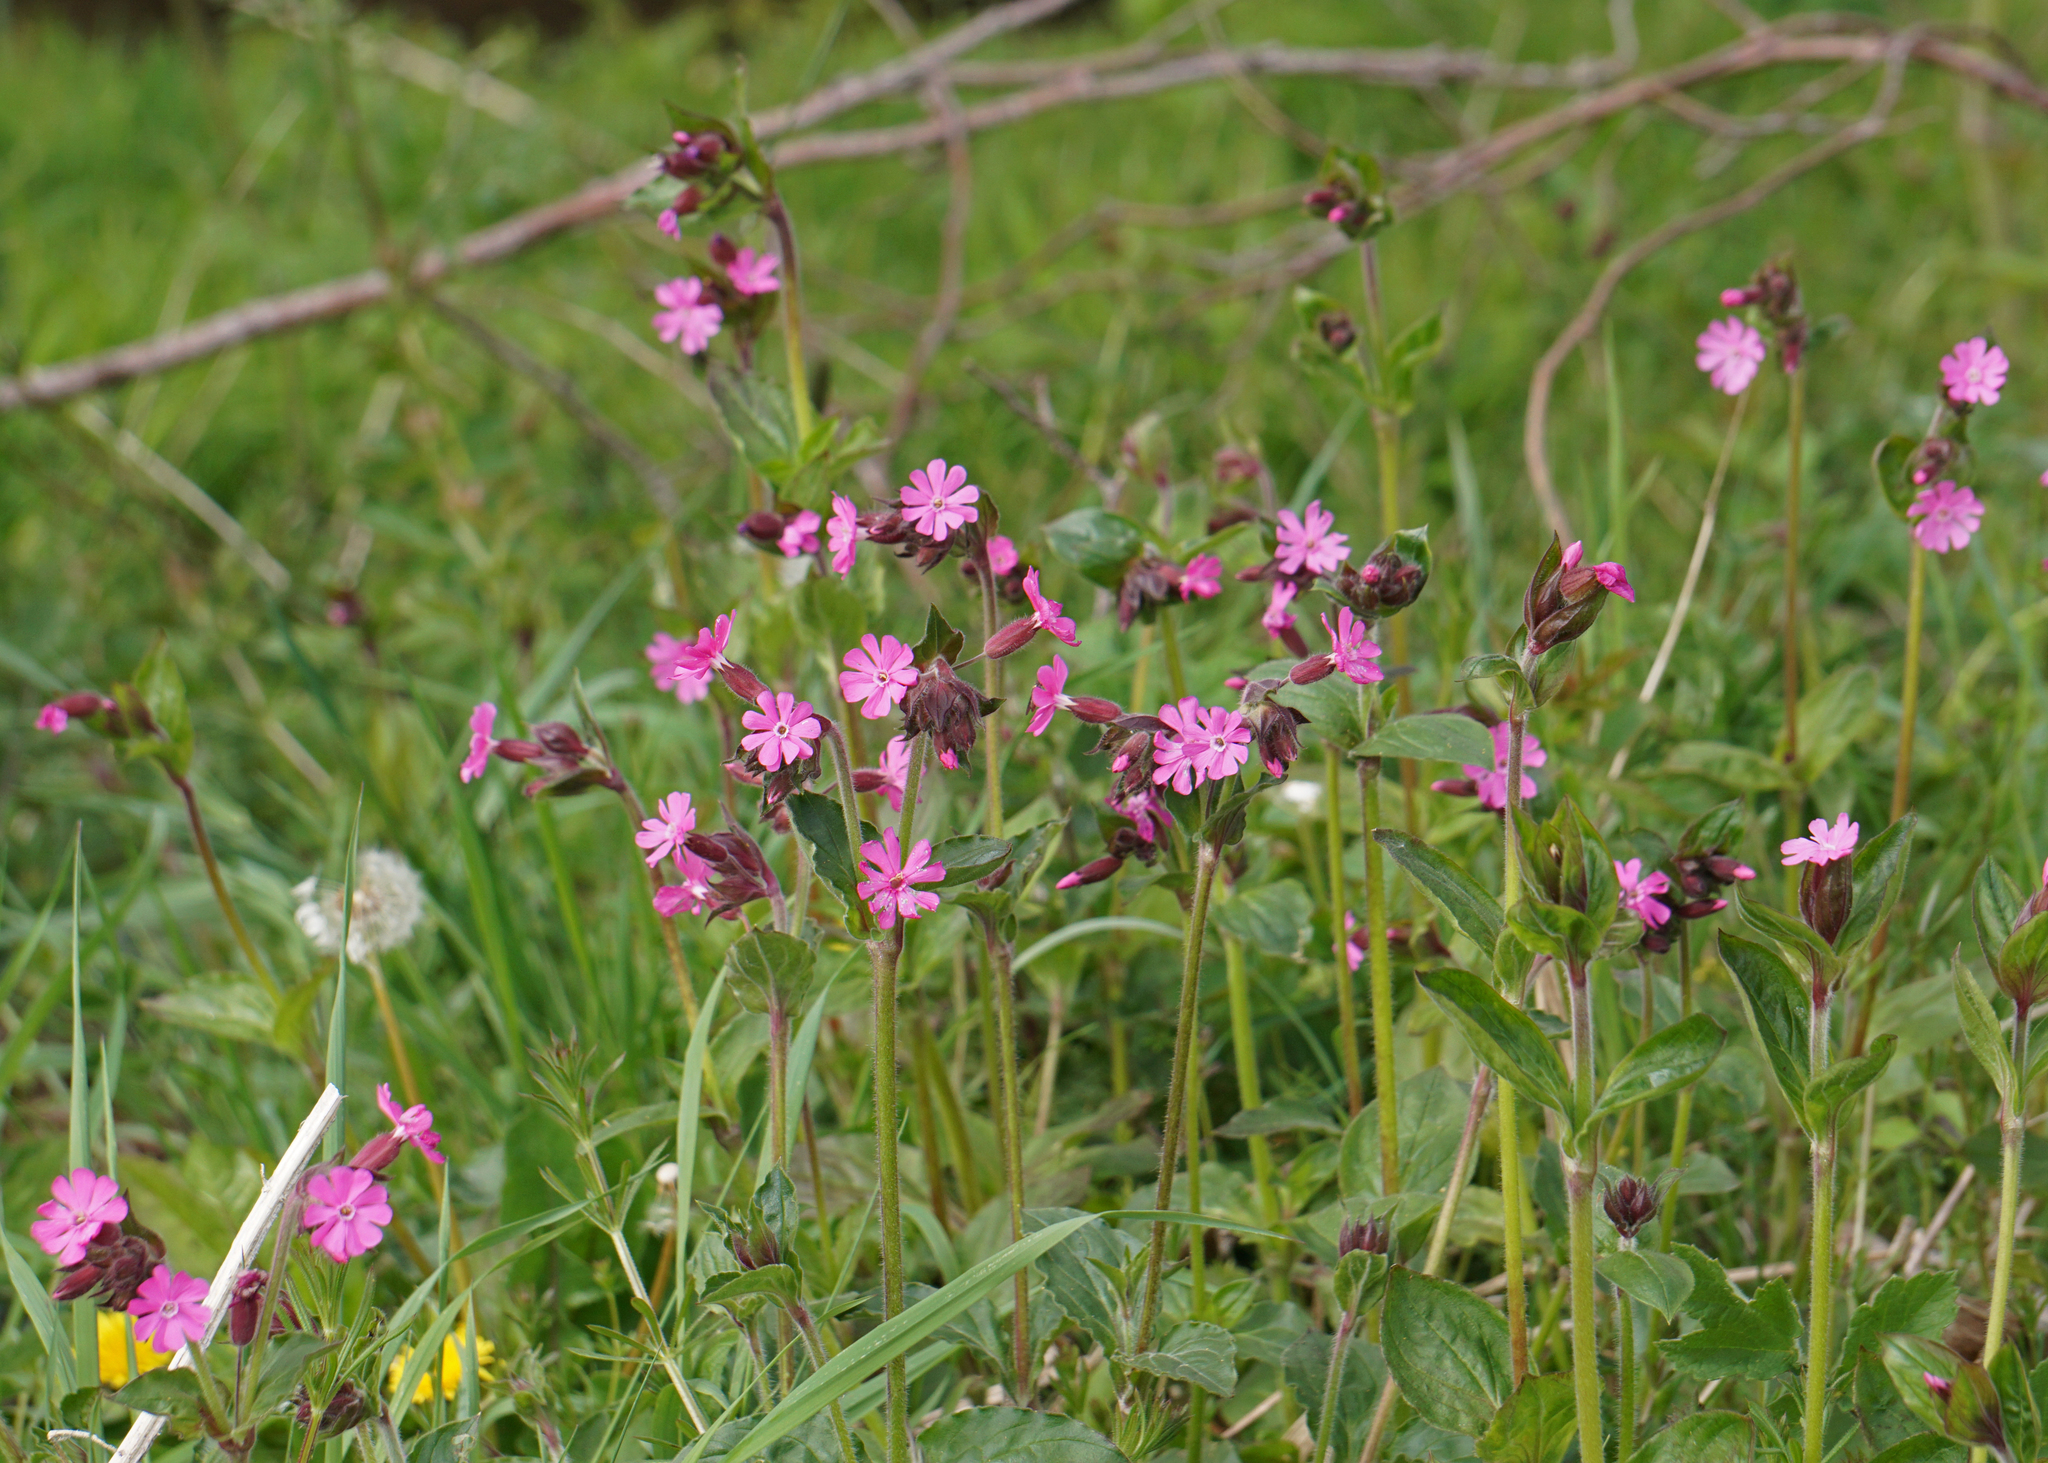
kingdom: Plantae
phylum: Tracheophyta
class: Magnoliopsida
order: Caryophyllales
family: Caryophyllaceae
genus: Silene
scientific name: Silene dioica
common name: Red campion
